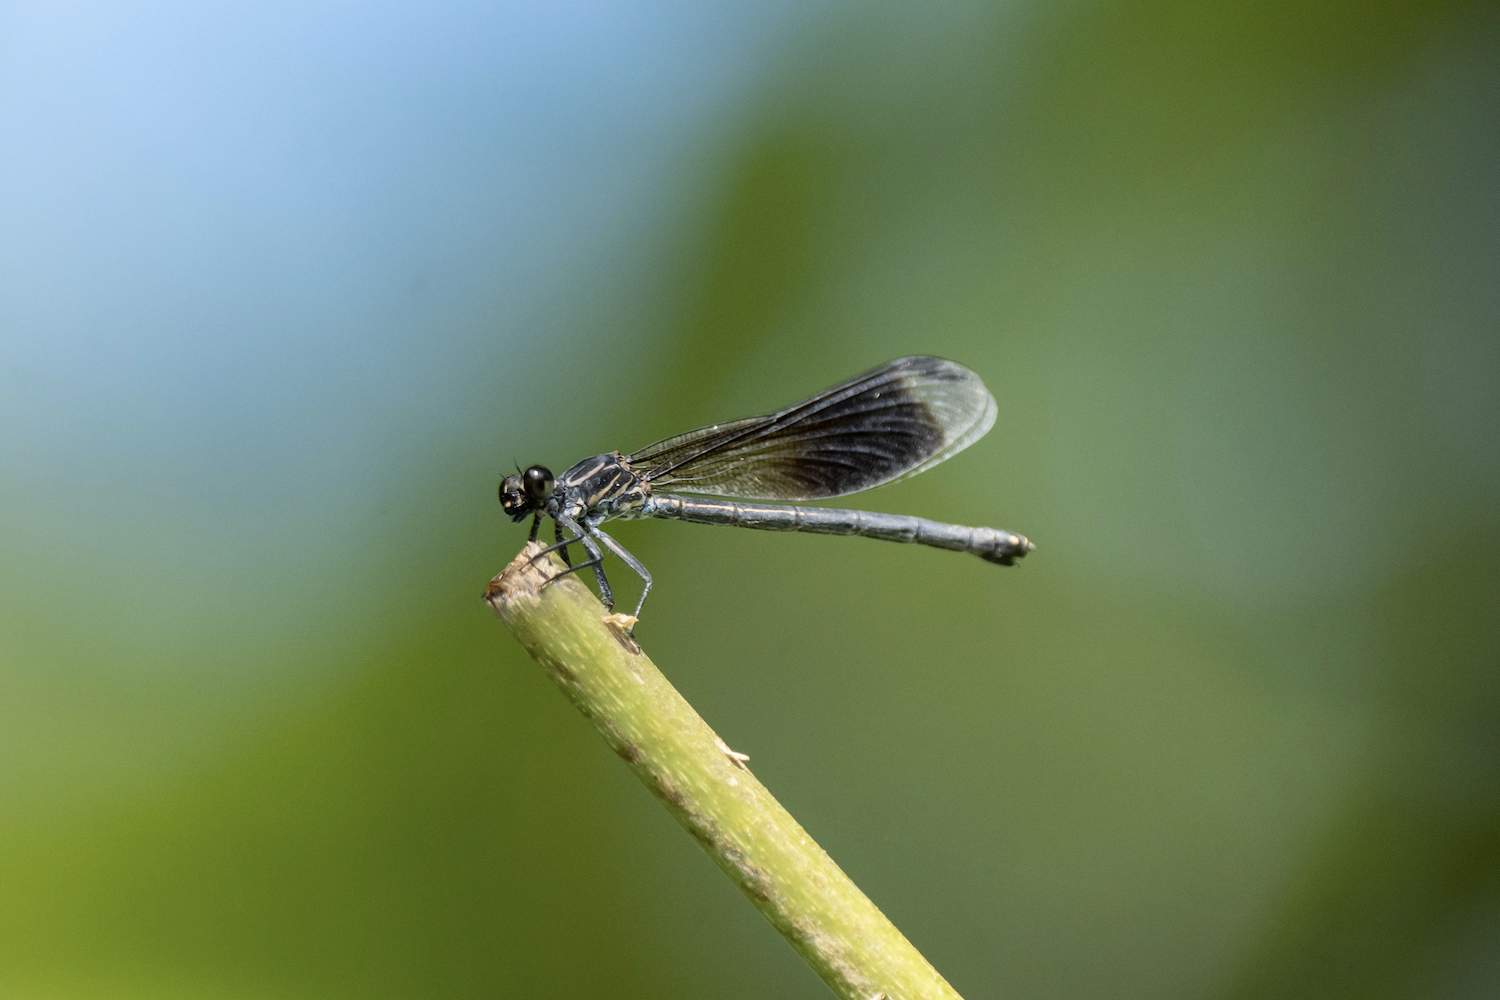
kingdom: Animalia
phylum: Arthropoda
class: Insecta
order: Odonata
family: Euphaeidae
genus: Euphaea
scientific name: Euphaea formosa
